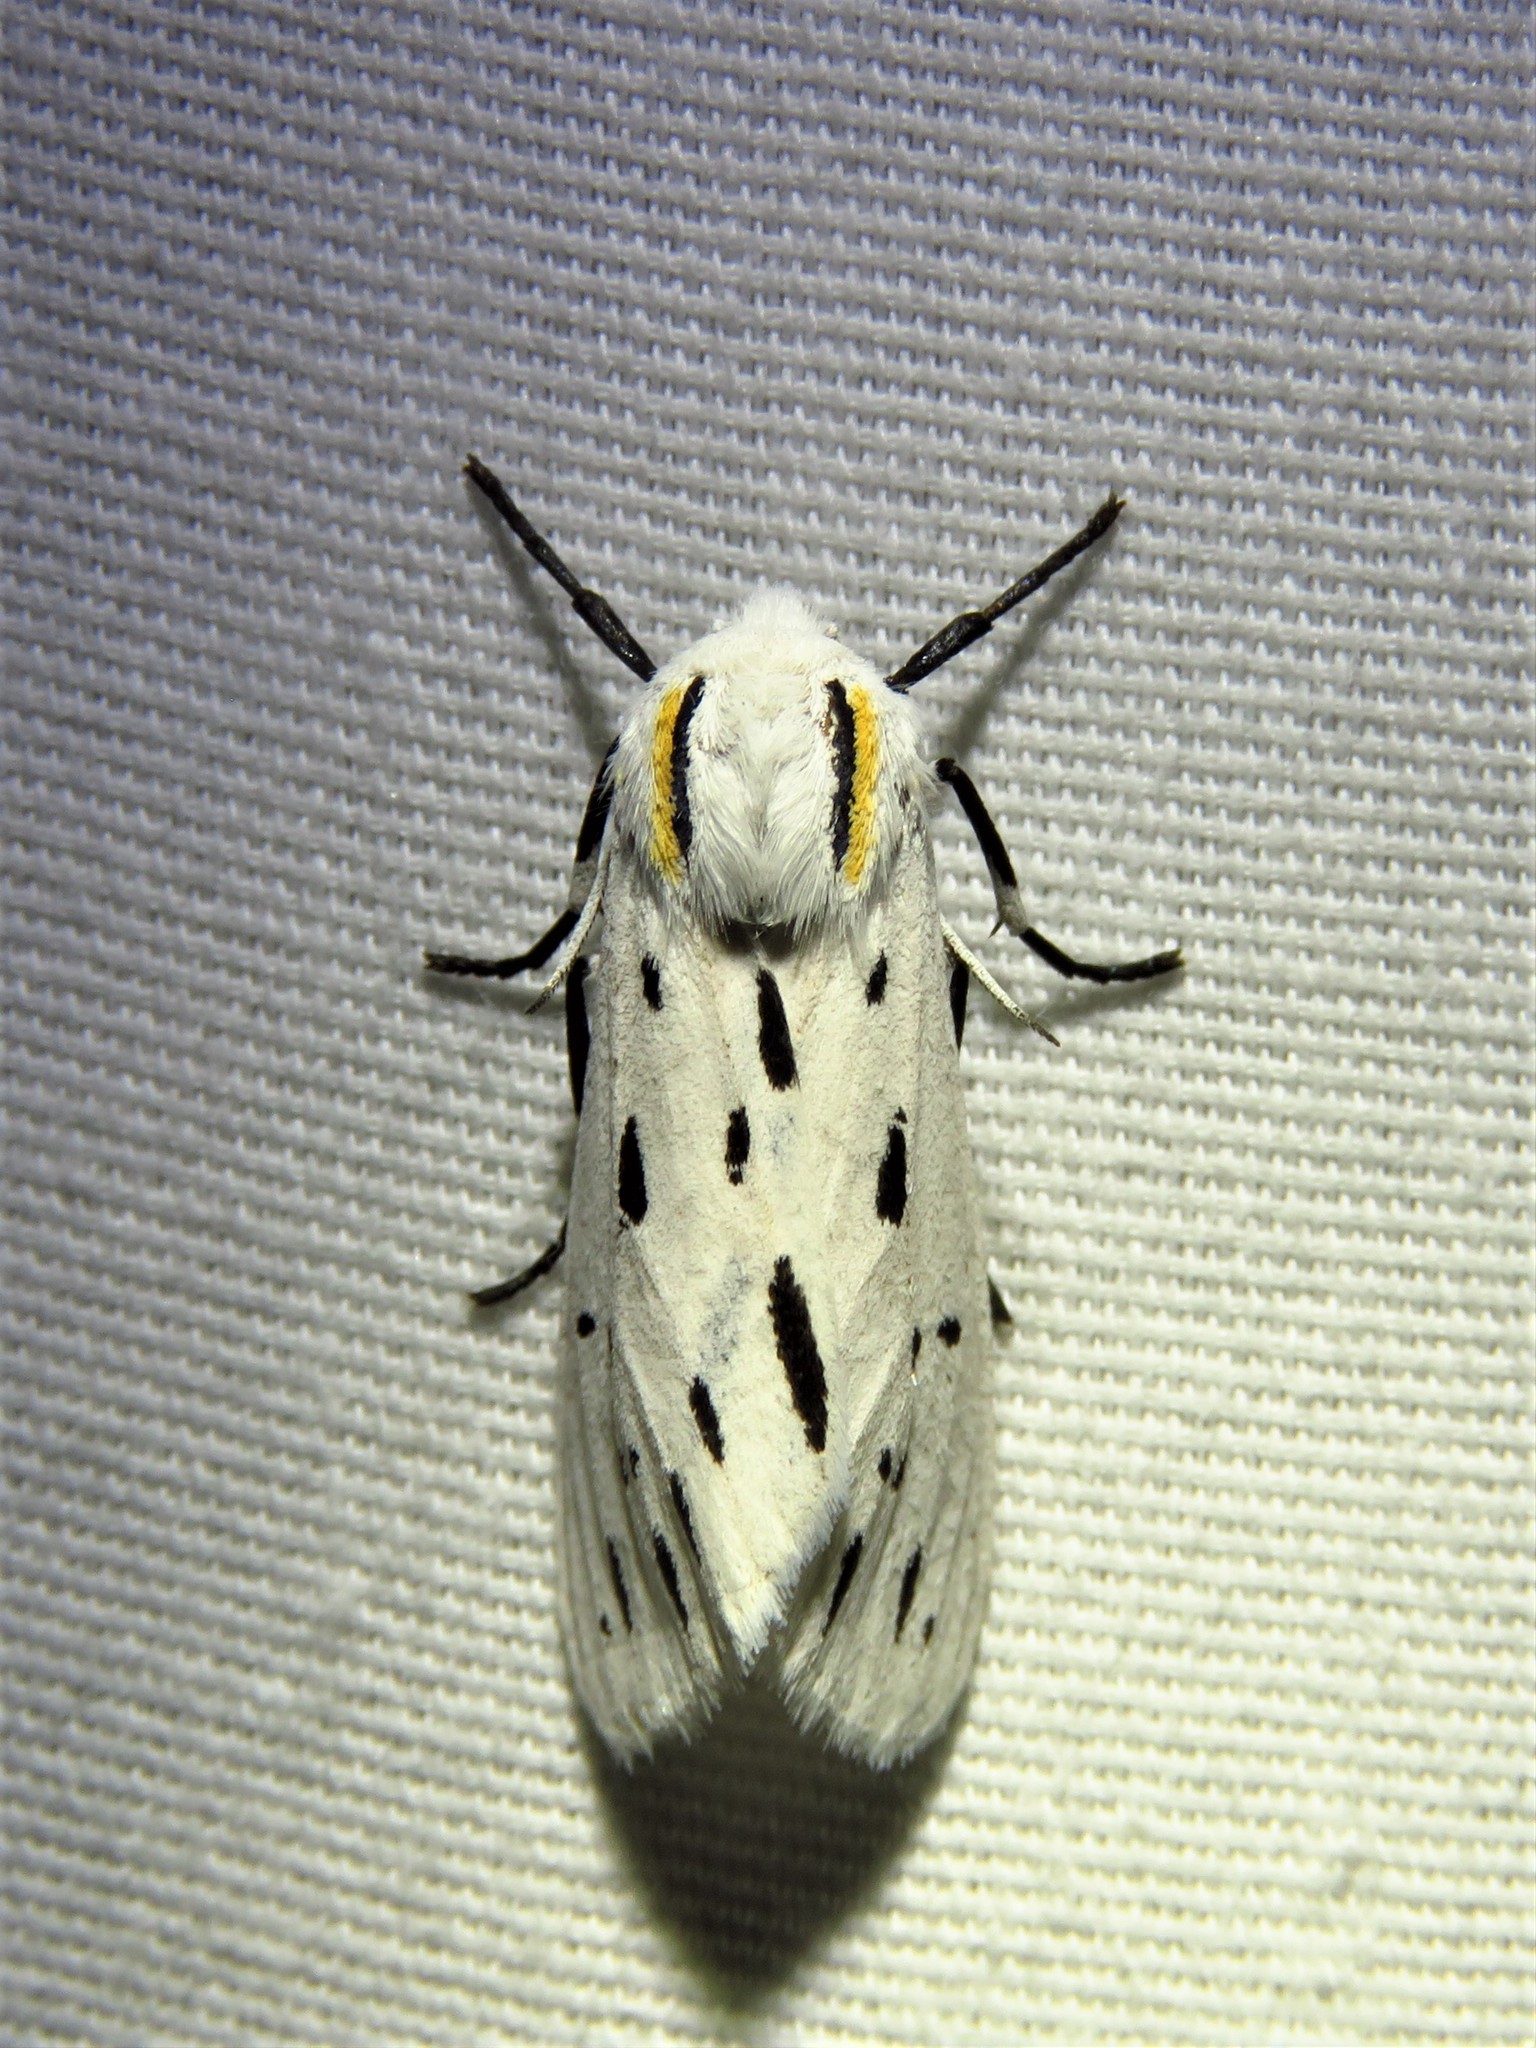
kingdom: Animalia
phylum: Arthropoda
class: Insecta
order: Lepidoptera
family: Erebidae
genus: Ectypia
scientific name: Ectypia bivittata
